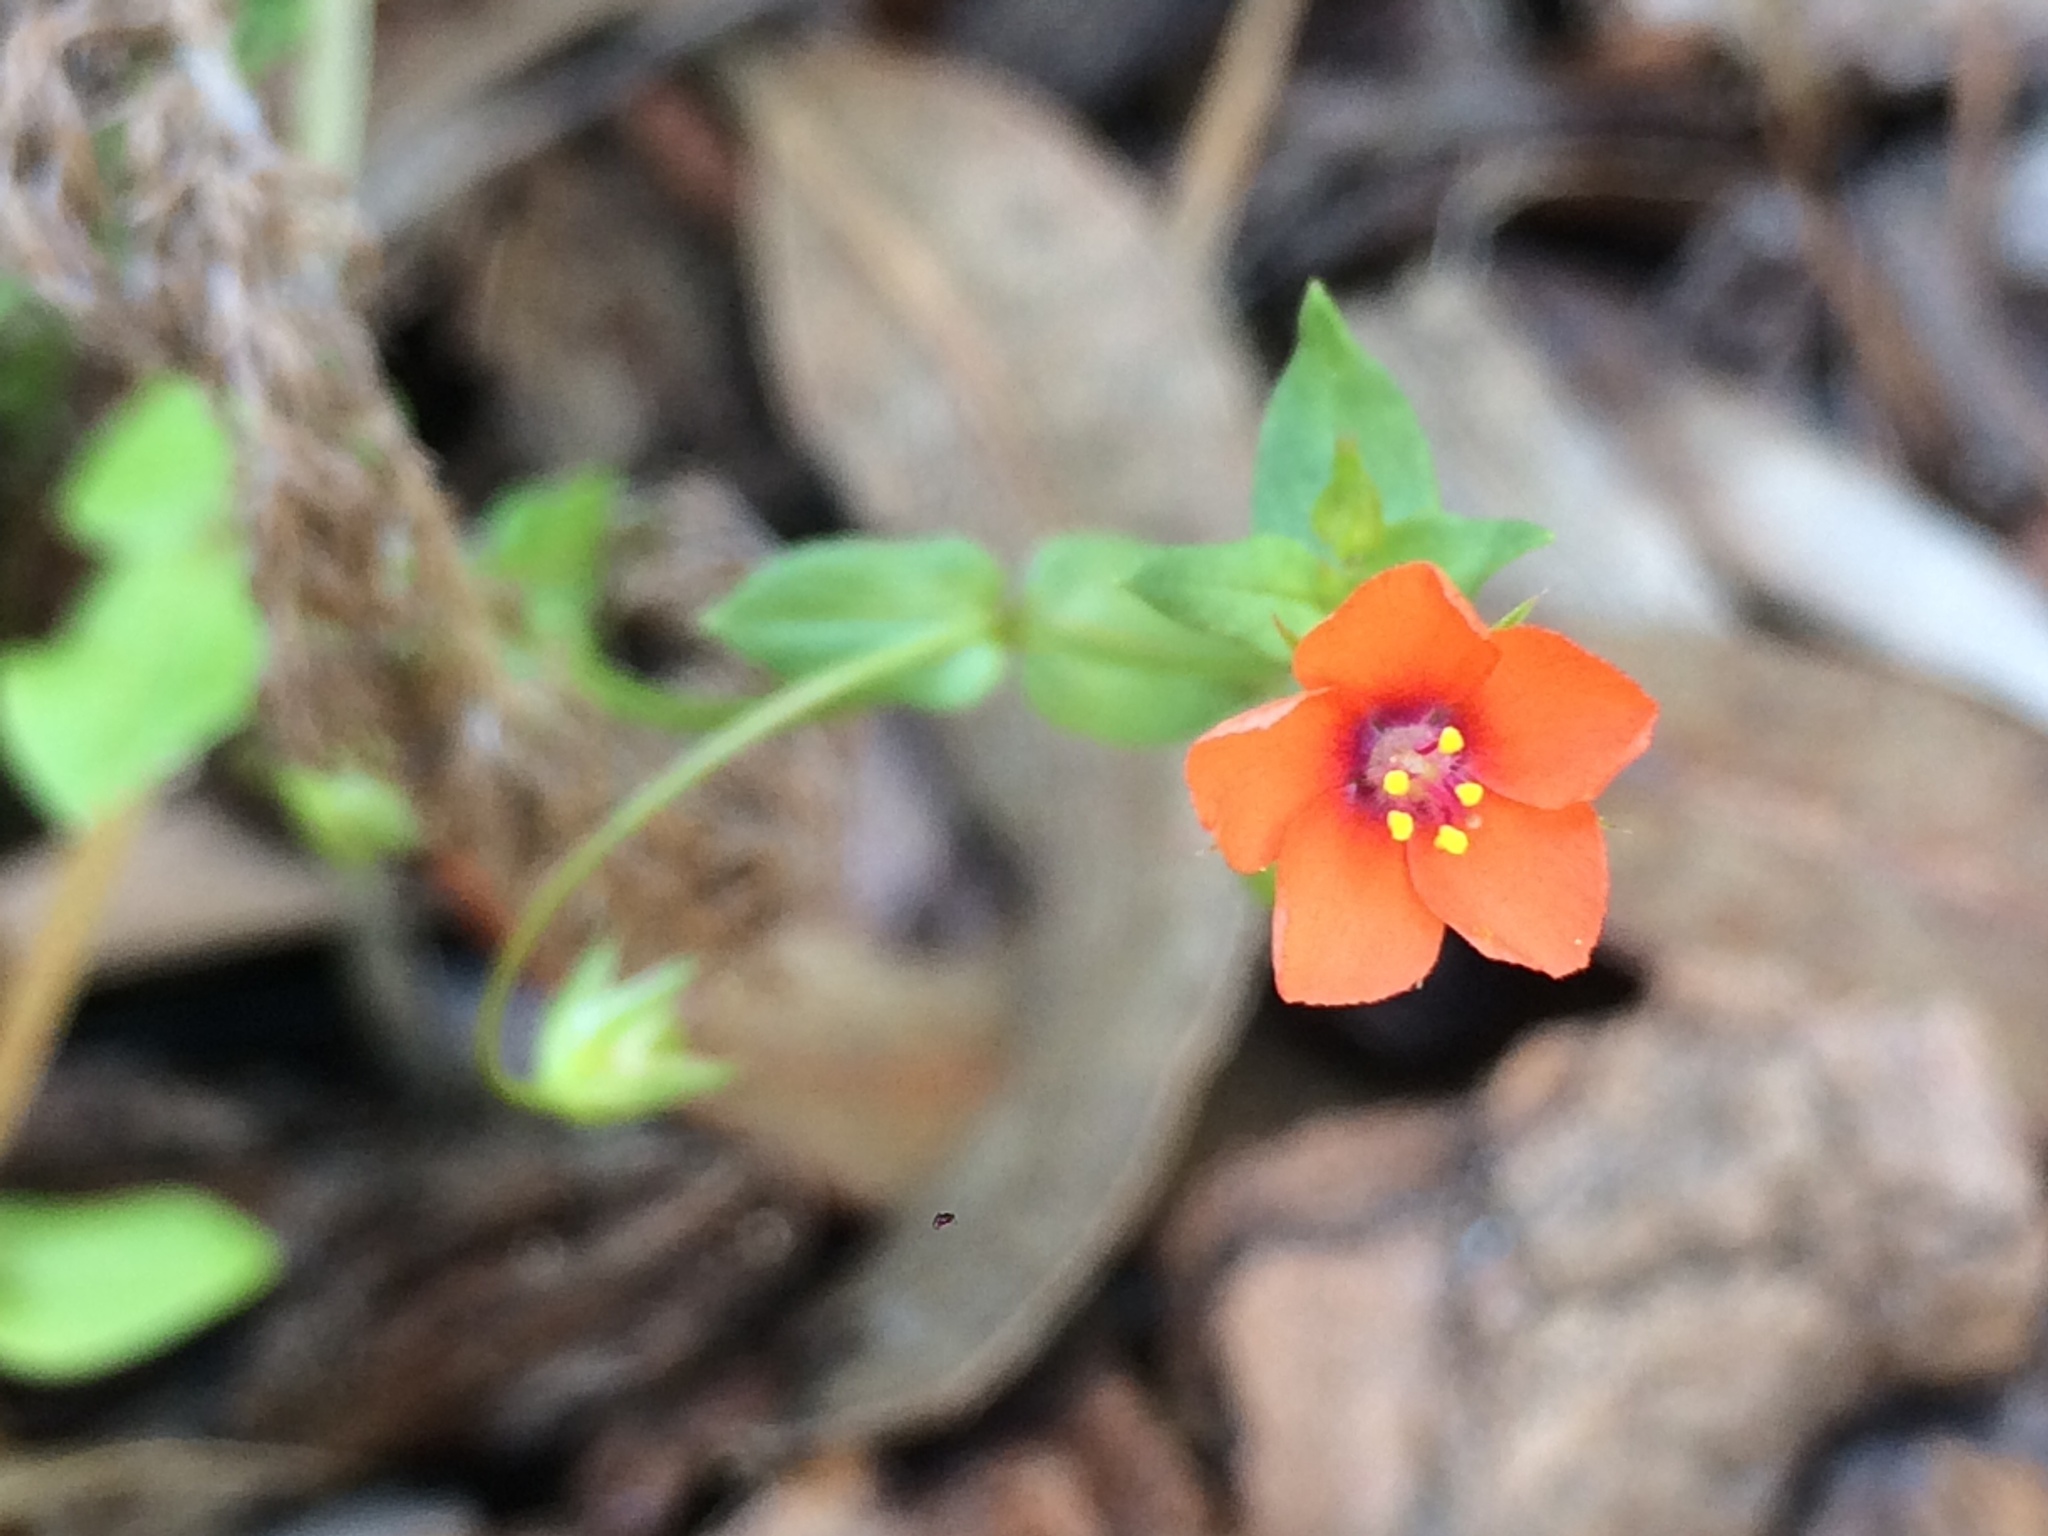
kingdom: Plantae
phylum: Tracheophyta
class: Magnoliopsida
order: Ericales
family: Primulaceae
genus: Lysimachia
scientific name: Lysimachia arvensis
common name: Scarlet pimpernel
